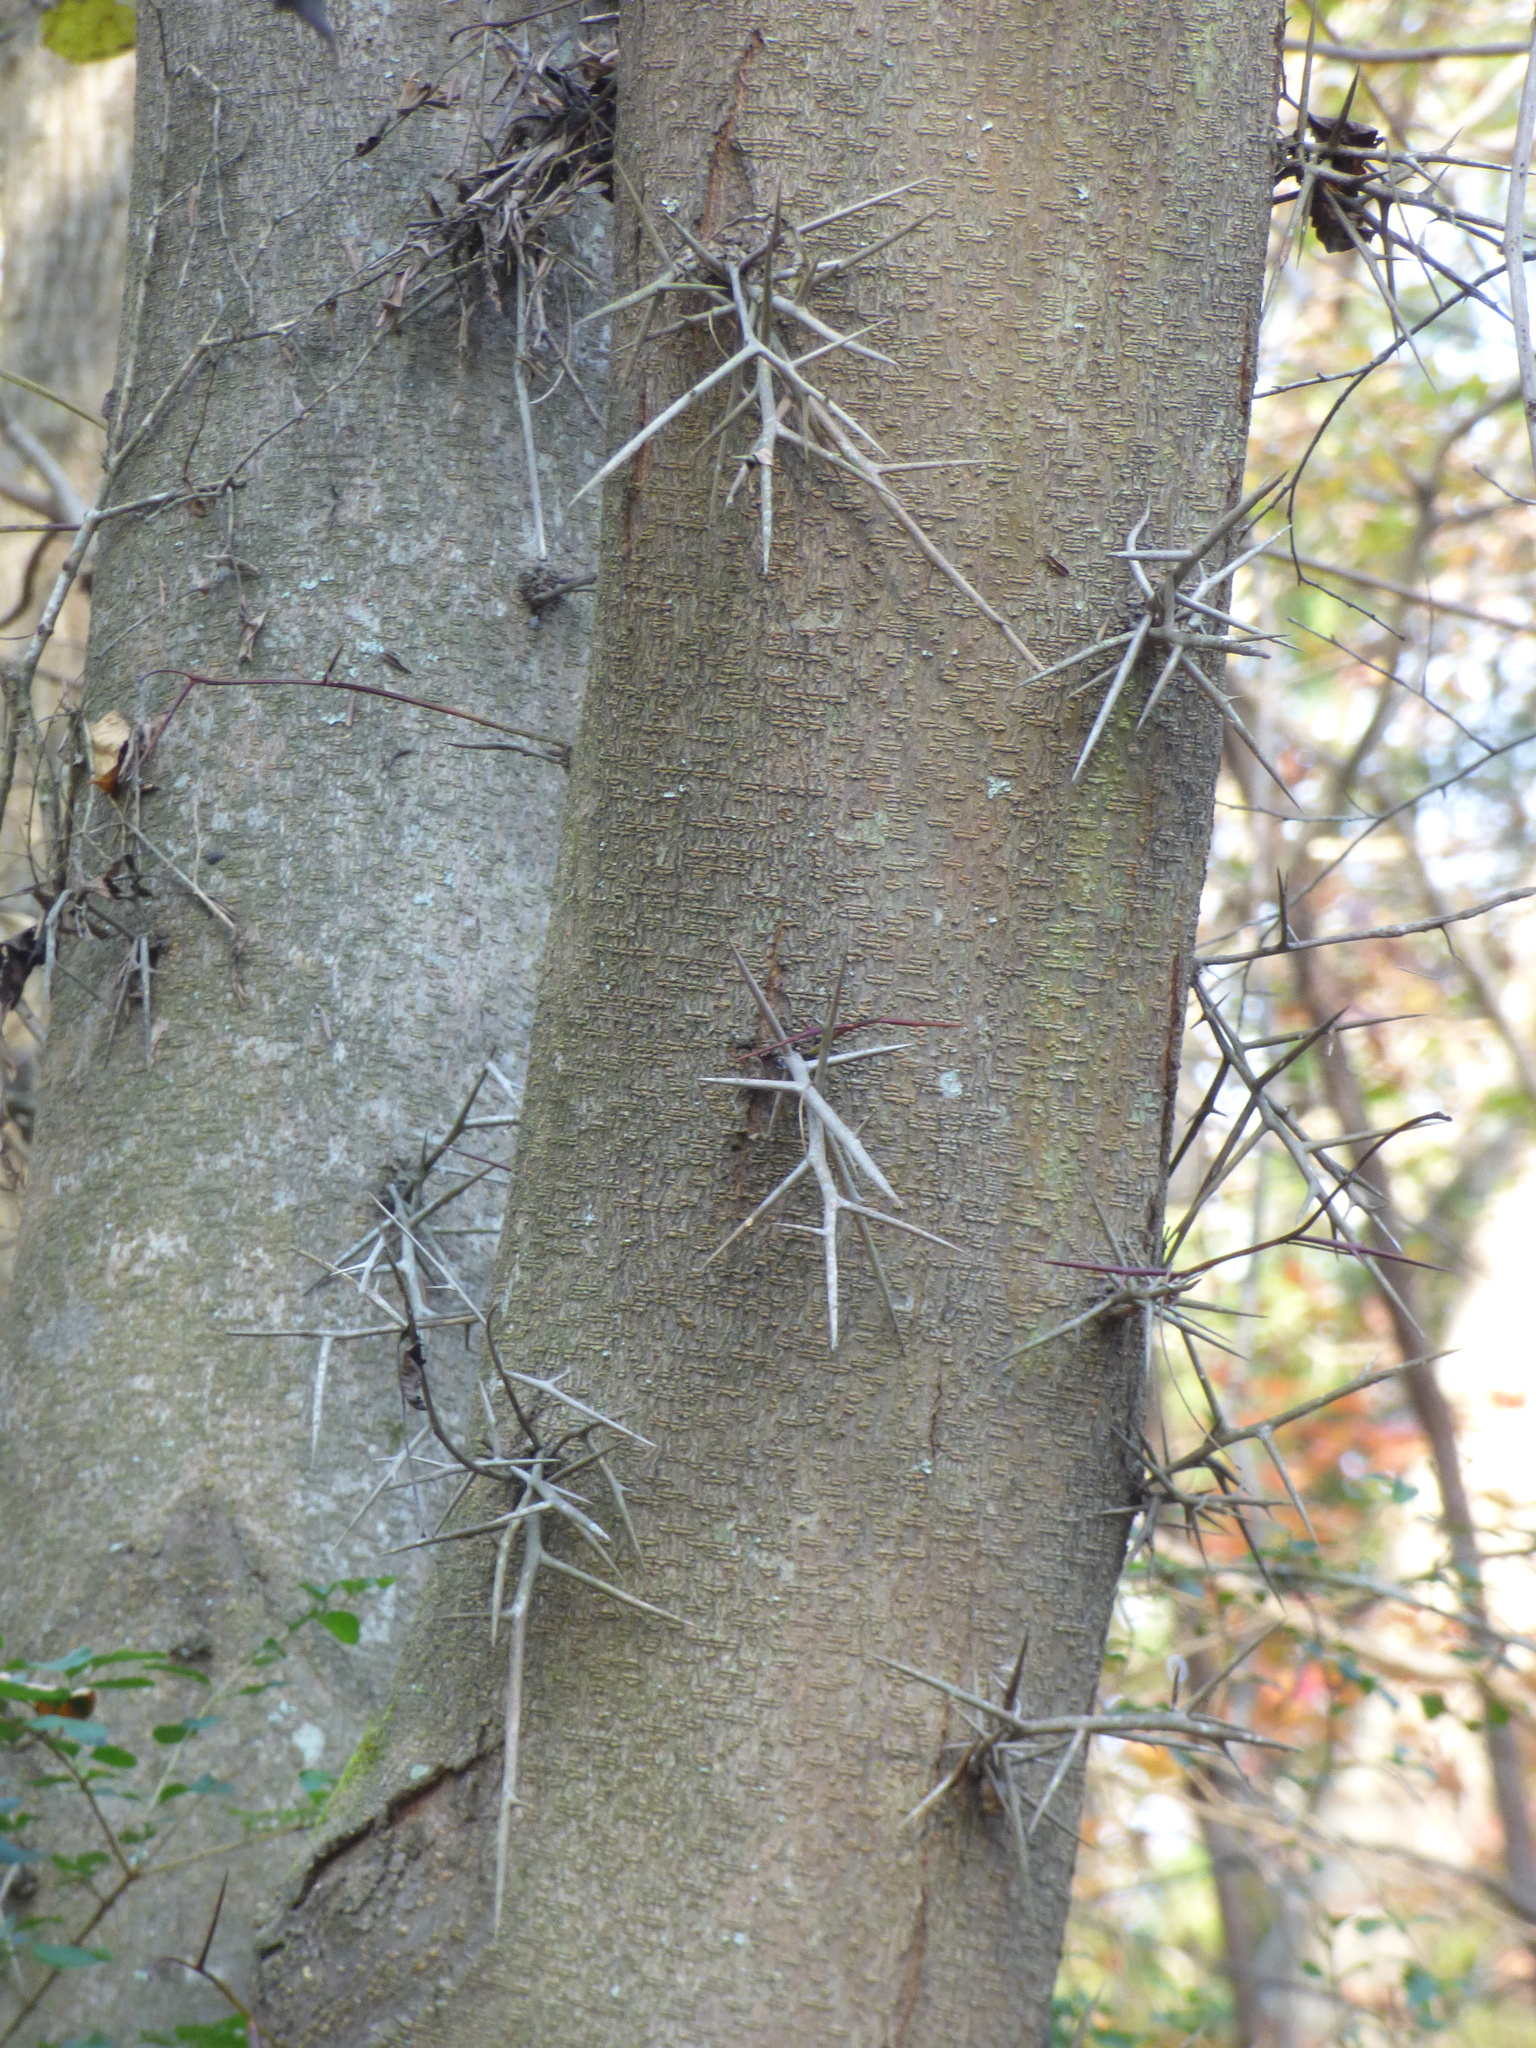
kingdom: Plantae
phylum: Tracheophyta
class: Magnoliopsida
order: Fabales
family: Fabaceae
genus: Gleditsia
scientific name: Gleditsia triacanthos
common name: Common honeylocust
